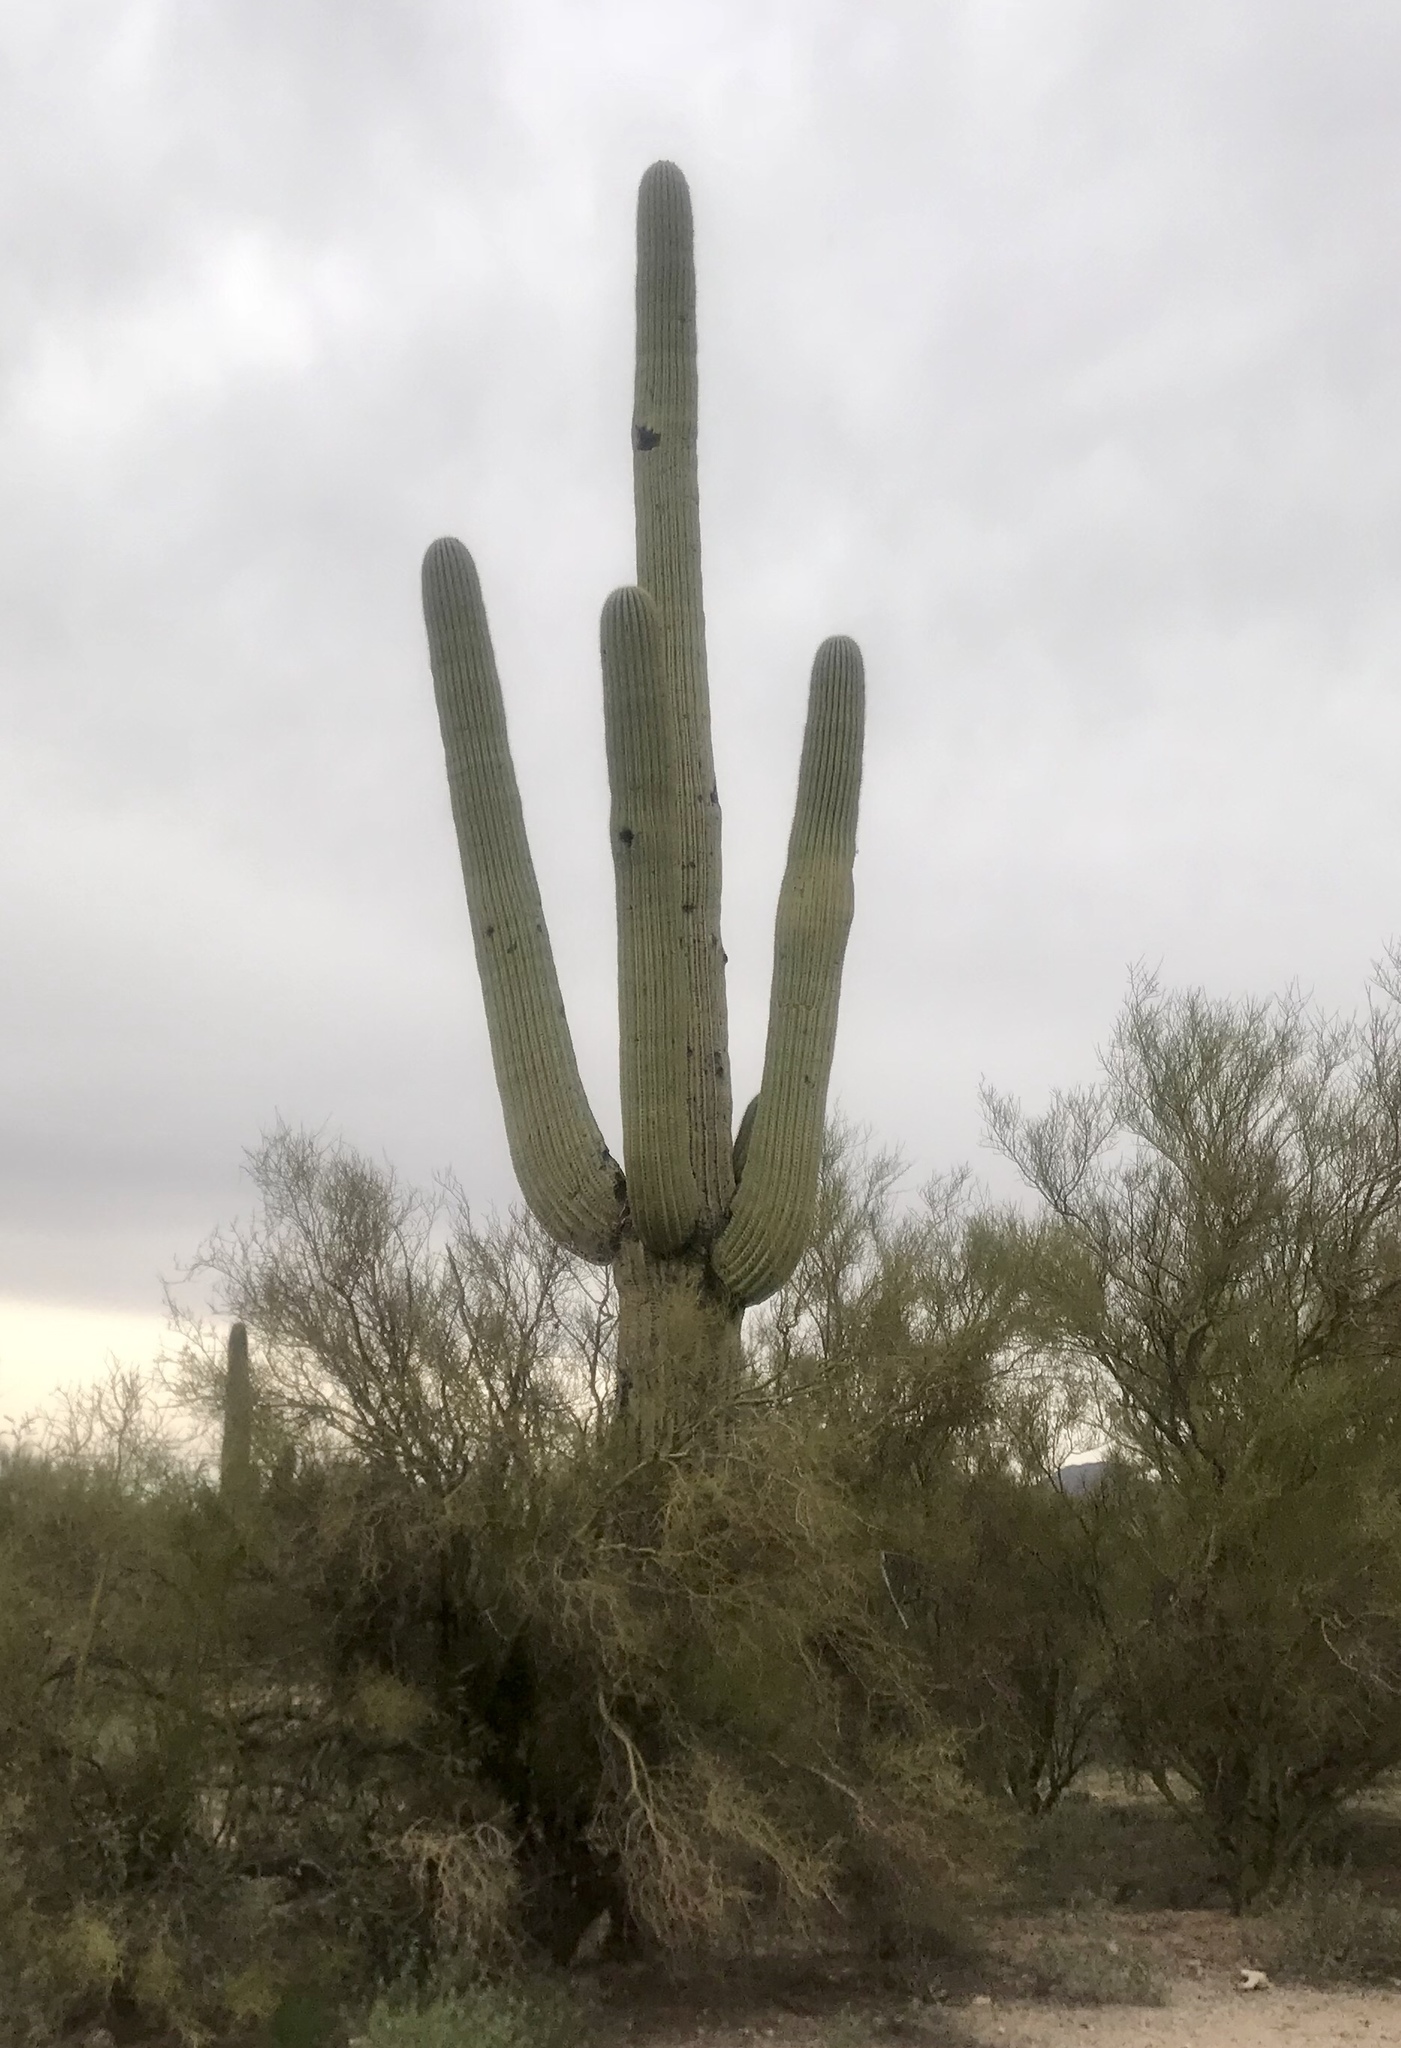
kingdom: Plantae
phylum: Tracheophyta
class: Magnoliopsida
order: Caryophyllales
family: Cactaceae
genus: Carnegiea
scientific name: Carnegiea gigantea
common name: Saguaro
